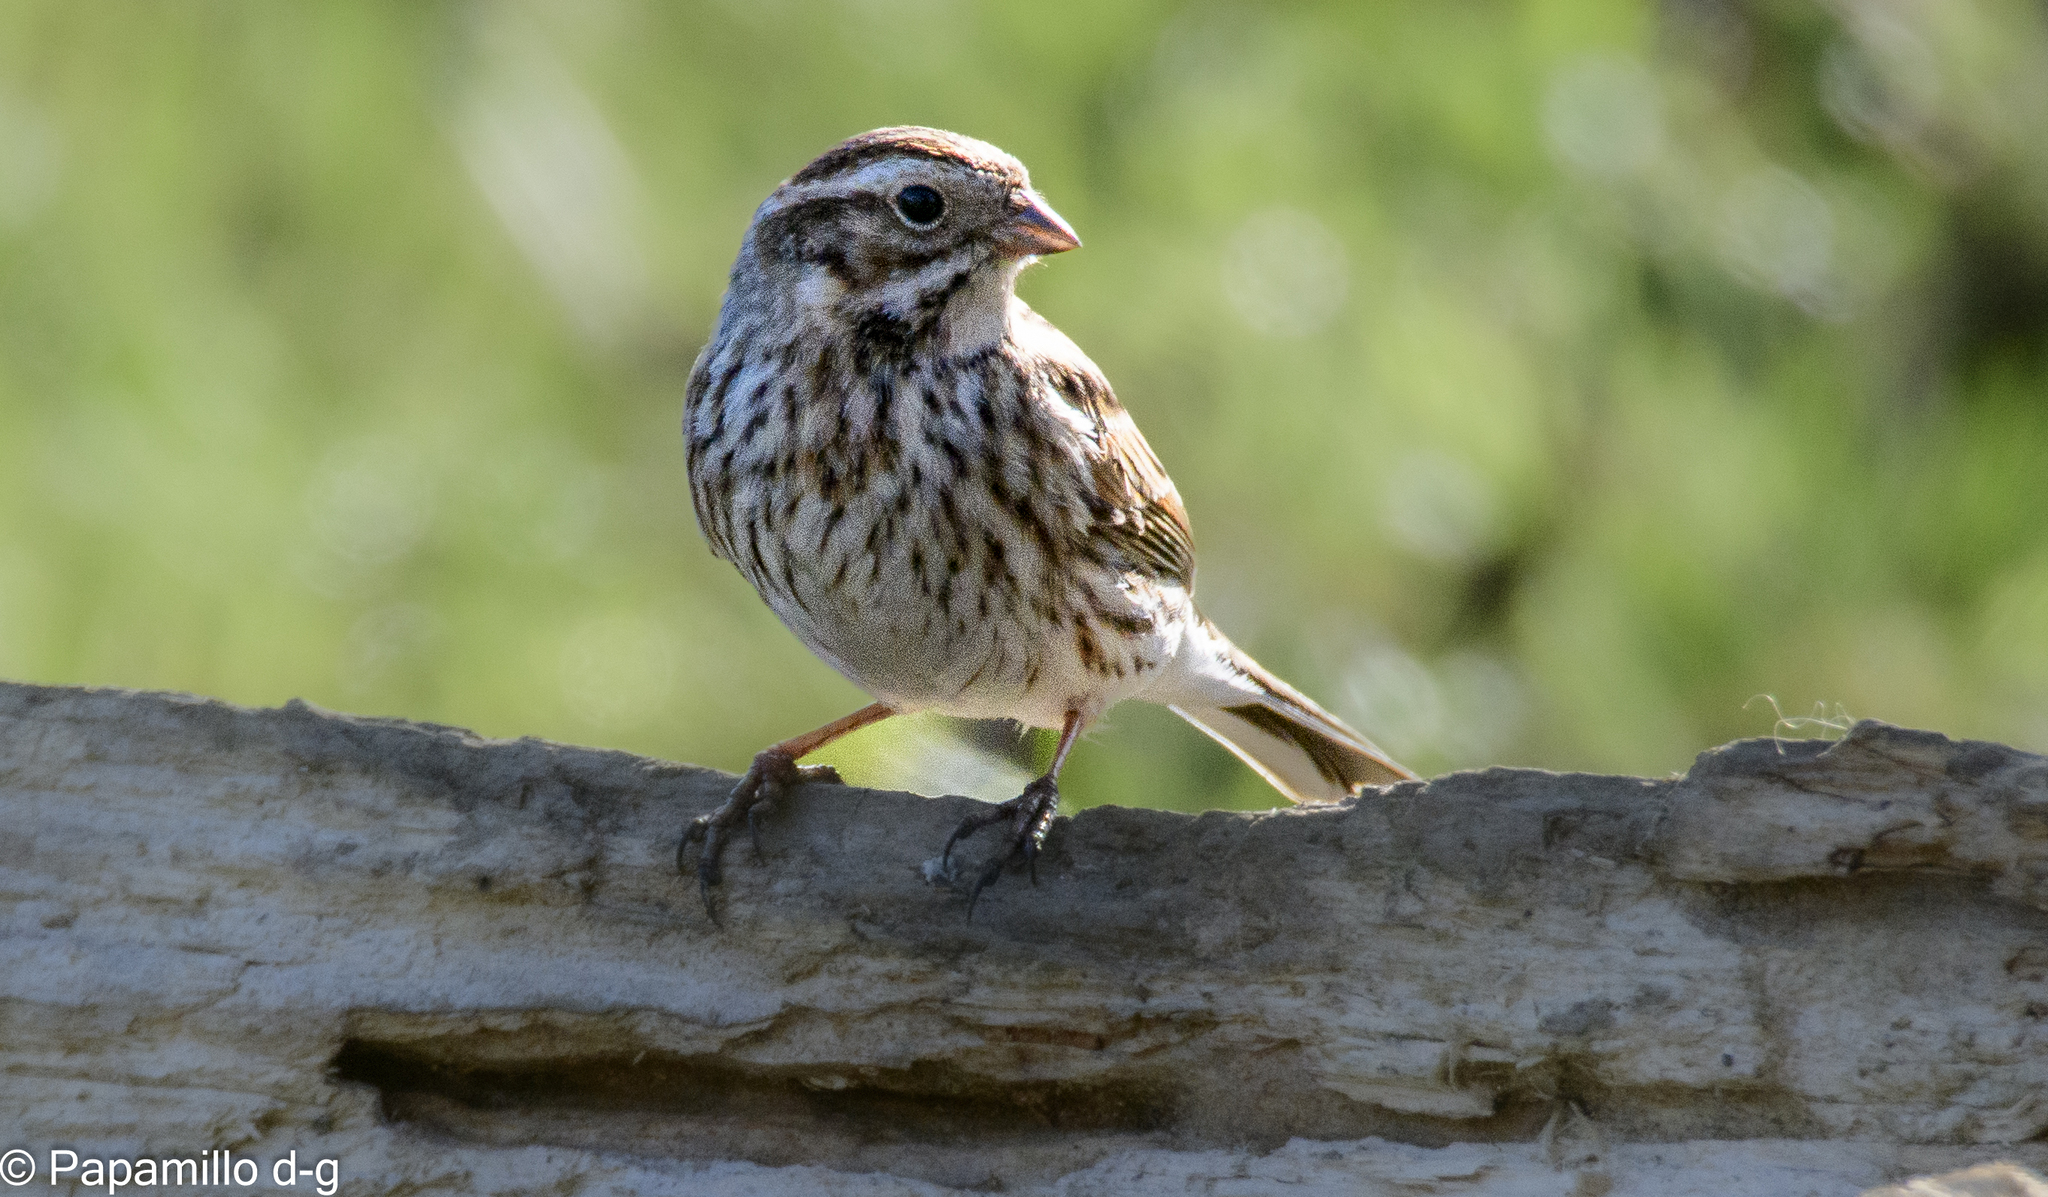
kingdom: Animalia
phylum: Chordata
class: Aves
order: Passeriformes
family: Emberizidae
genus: Emberiza
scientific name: Emberiza schoeniclus
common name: Reed bunting
